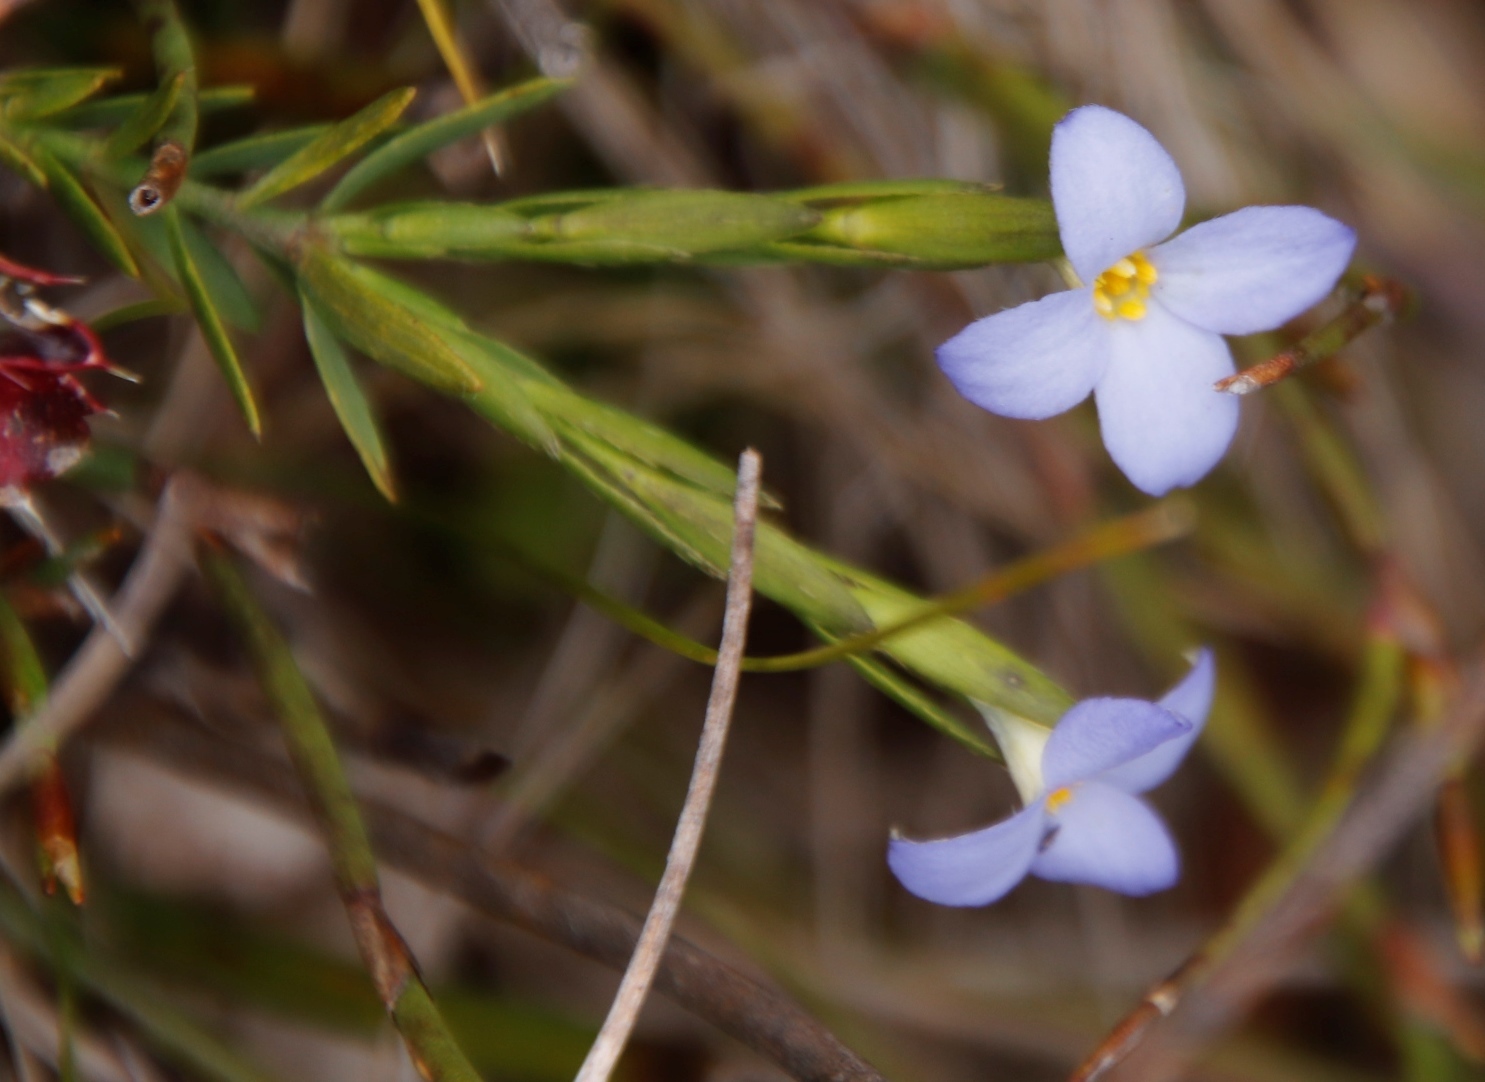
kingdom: Plantae
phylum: Tracheophyta
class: Magnoliopsida
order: Malvales
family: Thymelaeaceae
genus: Gnidia
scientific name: Gnidia linoides
